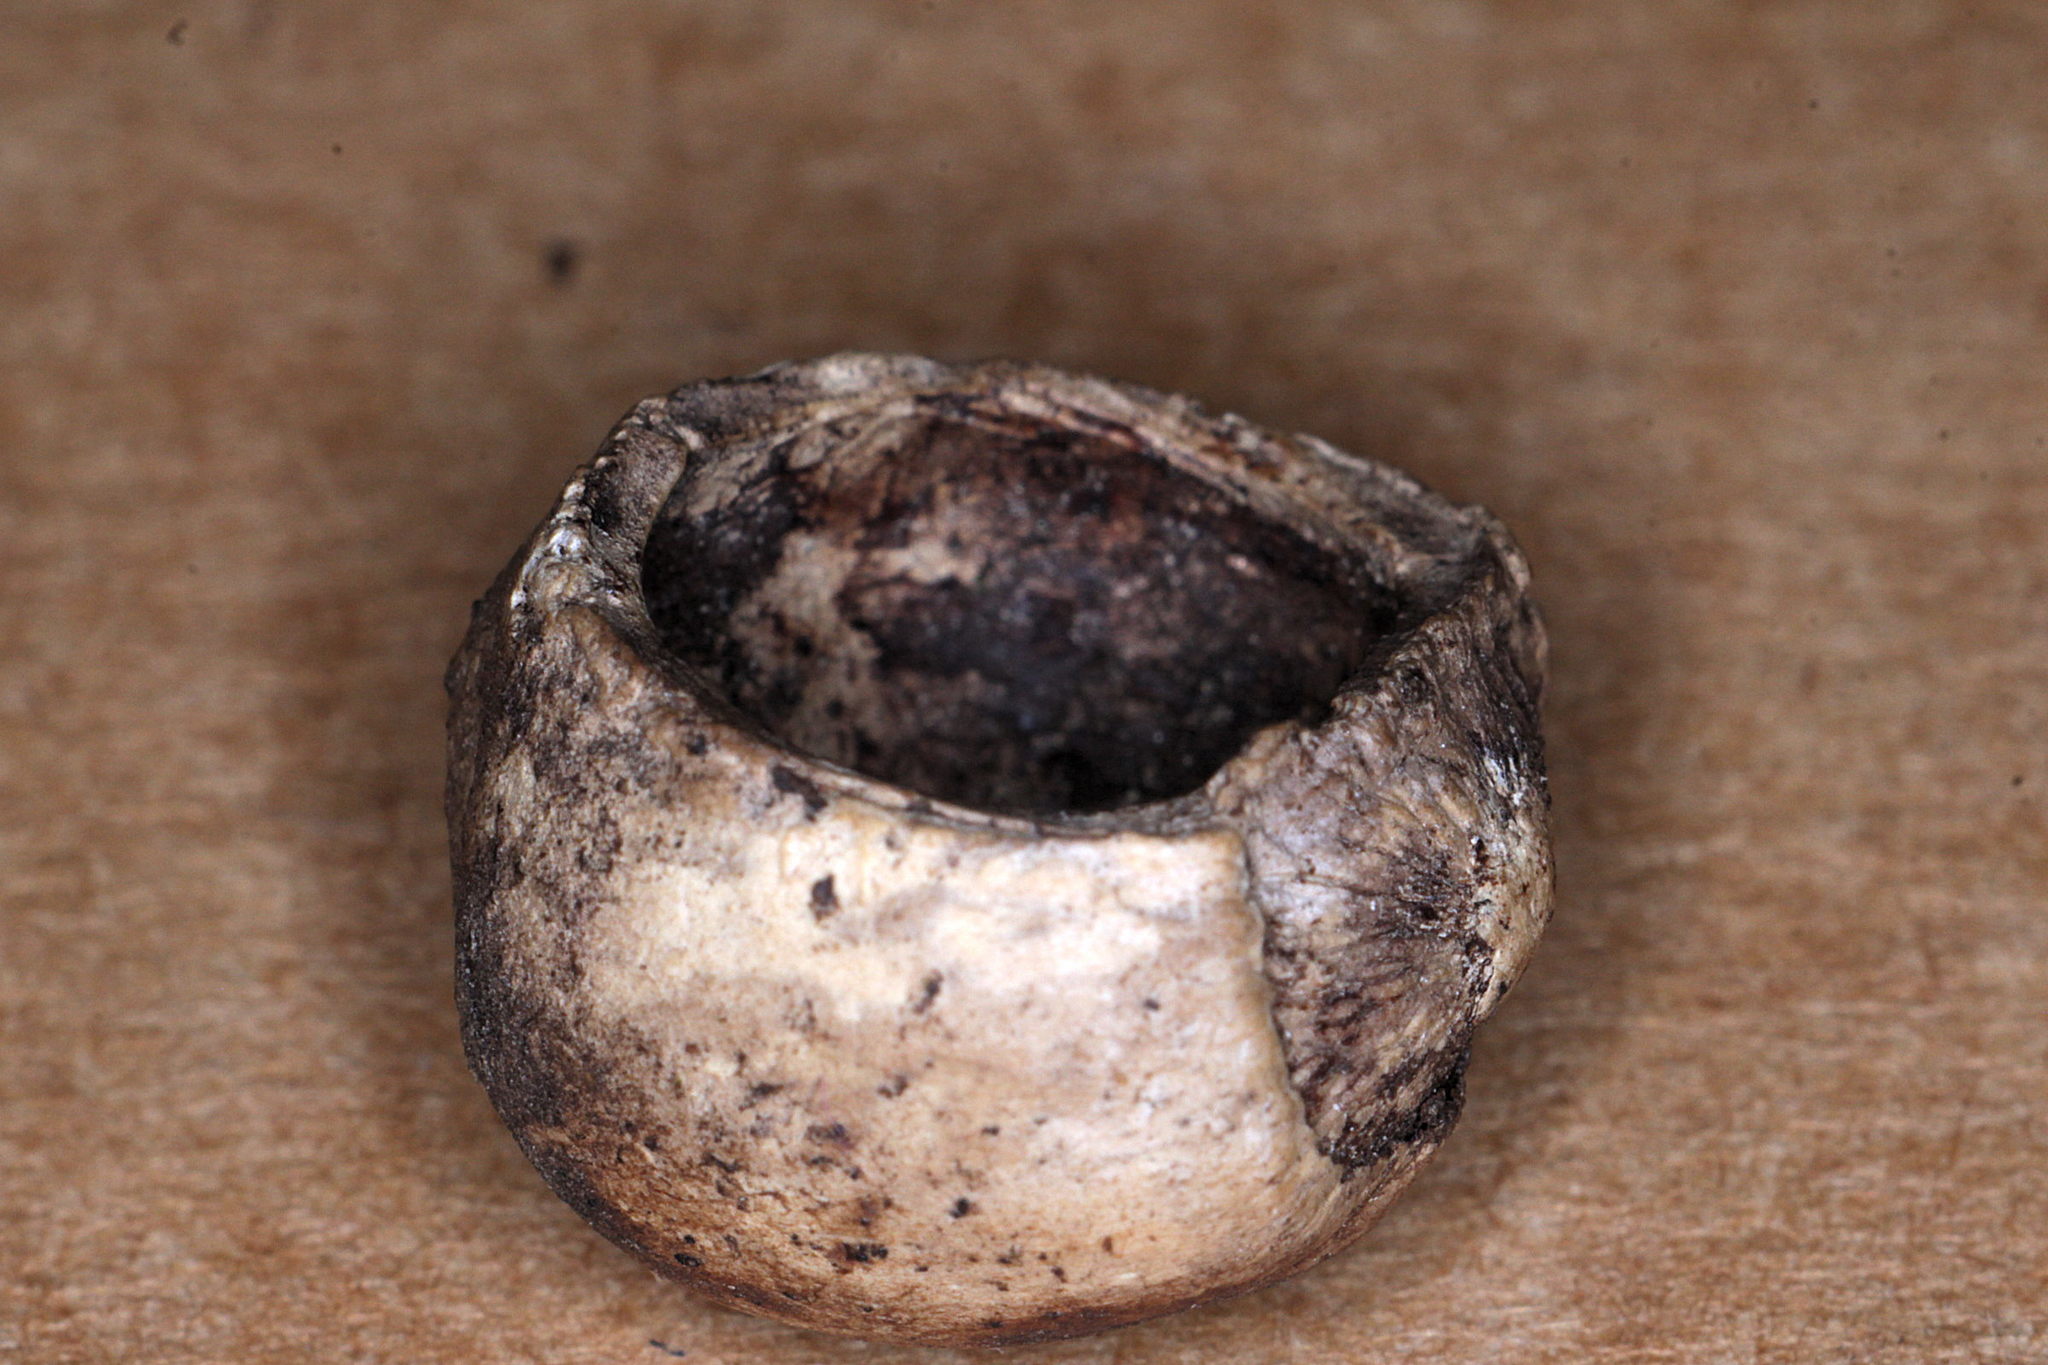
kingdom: Animalia
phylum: Chordata
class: Mammalia
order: Rodentia
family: Gliridae
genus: Muscardinus
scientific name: Muscardinus avellanarius
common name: Hazel dormouse
